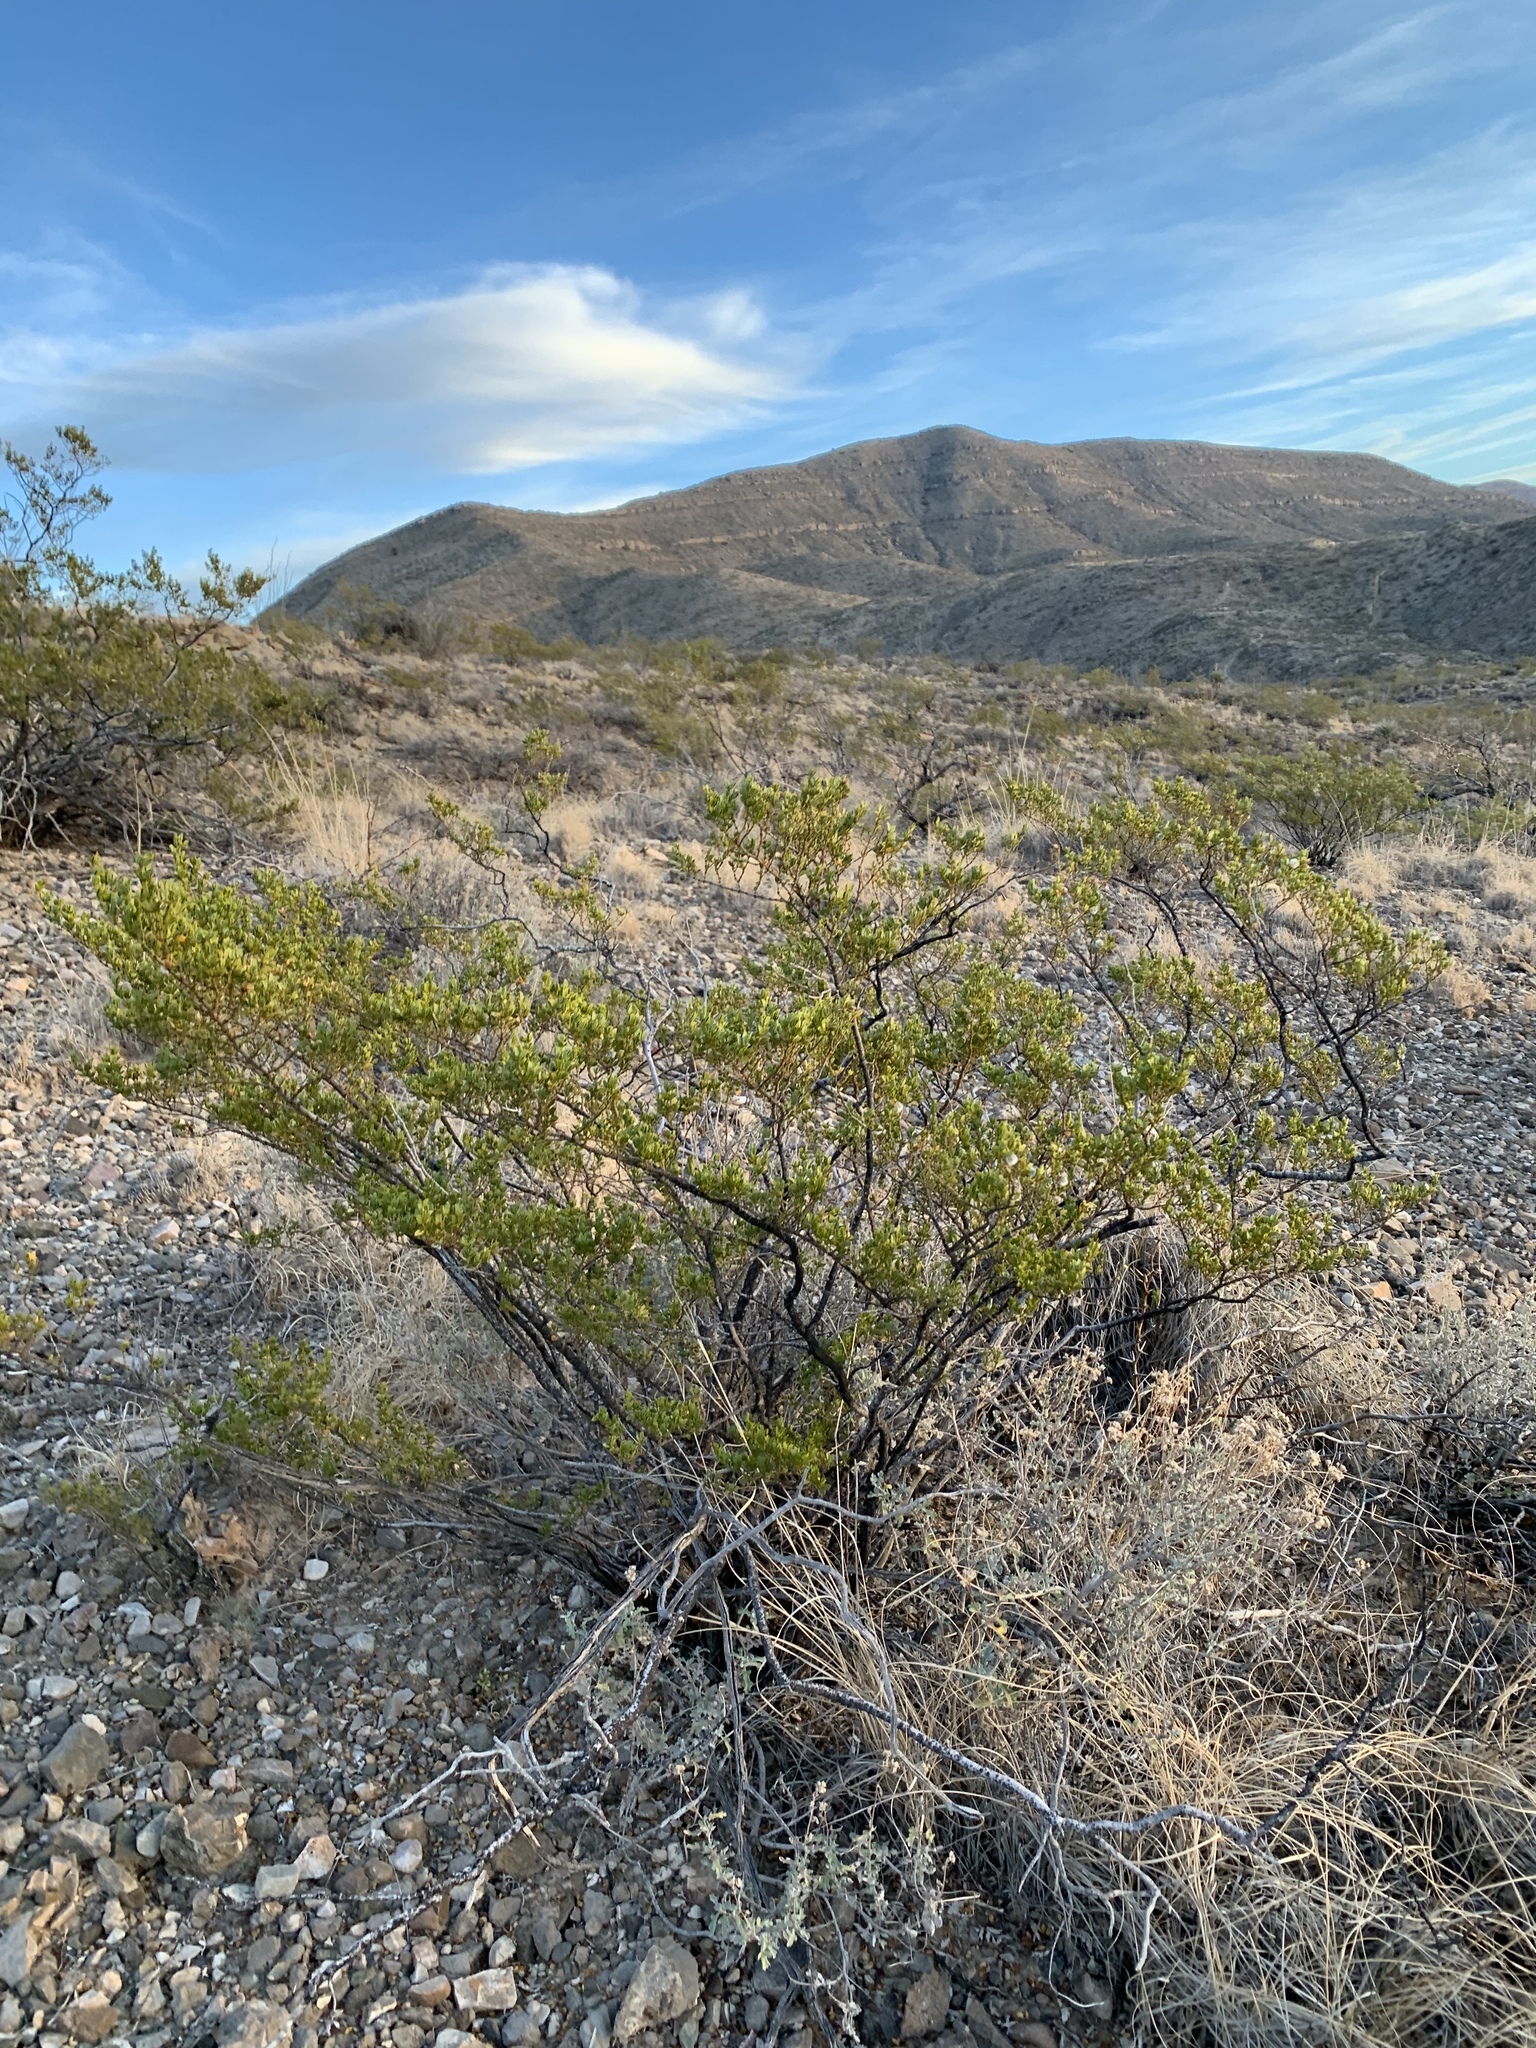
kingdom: Plantae
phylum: Tracheophyta
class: Magnoliopsida
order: Zygophyllales
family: Zygophyllaceae
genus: Larrea
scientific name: Larrea tridentata
